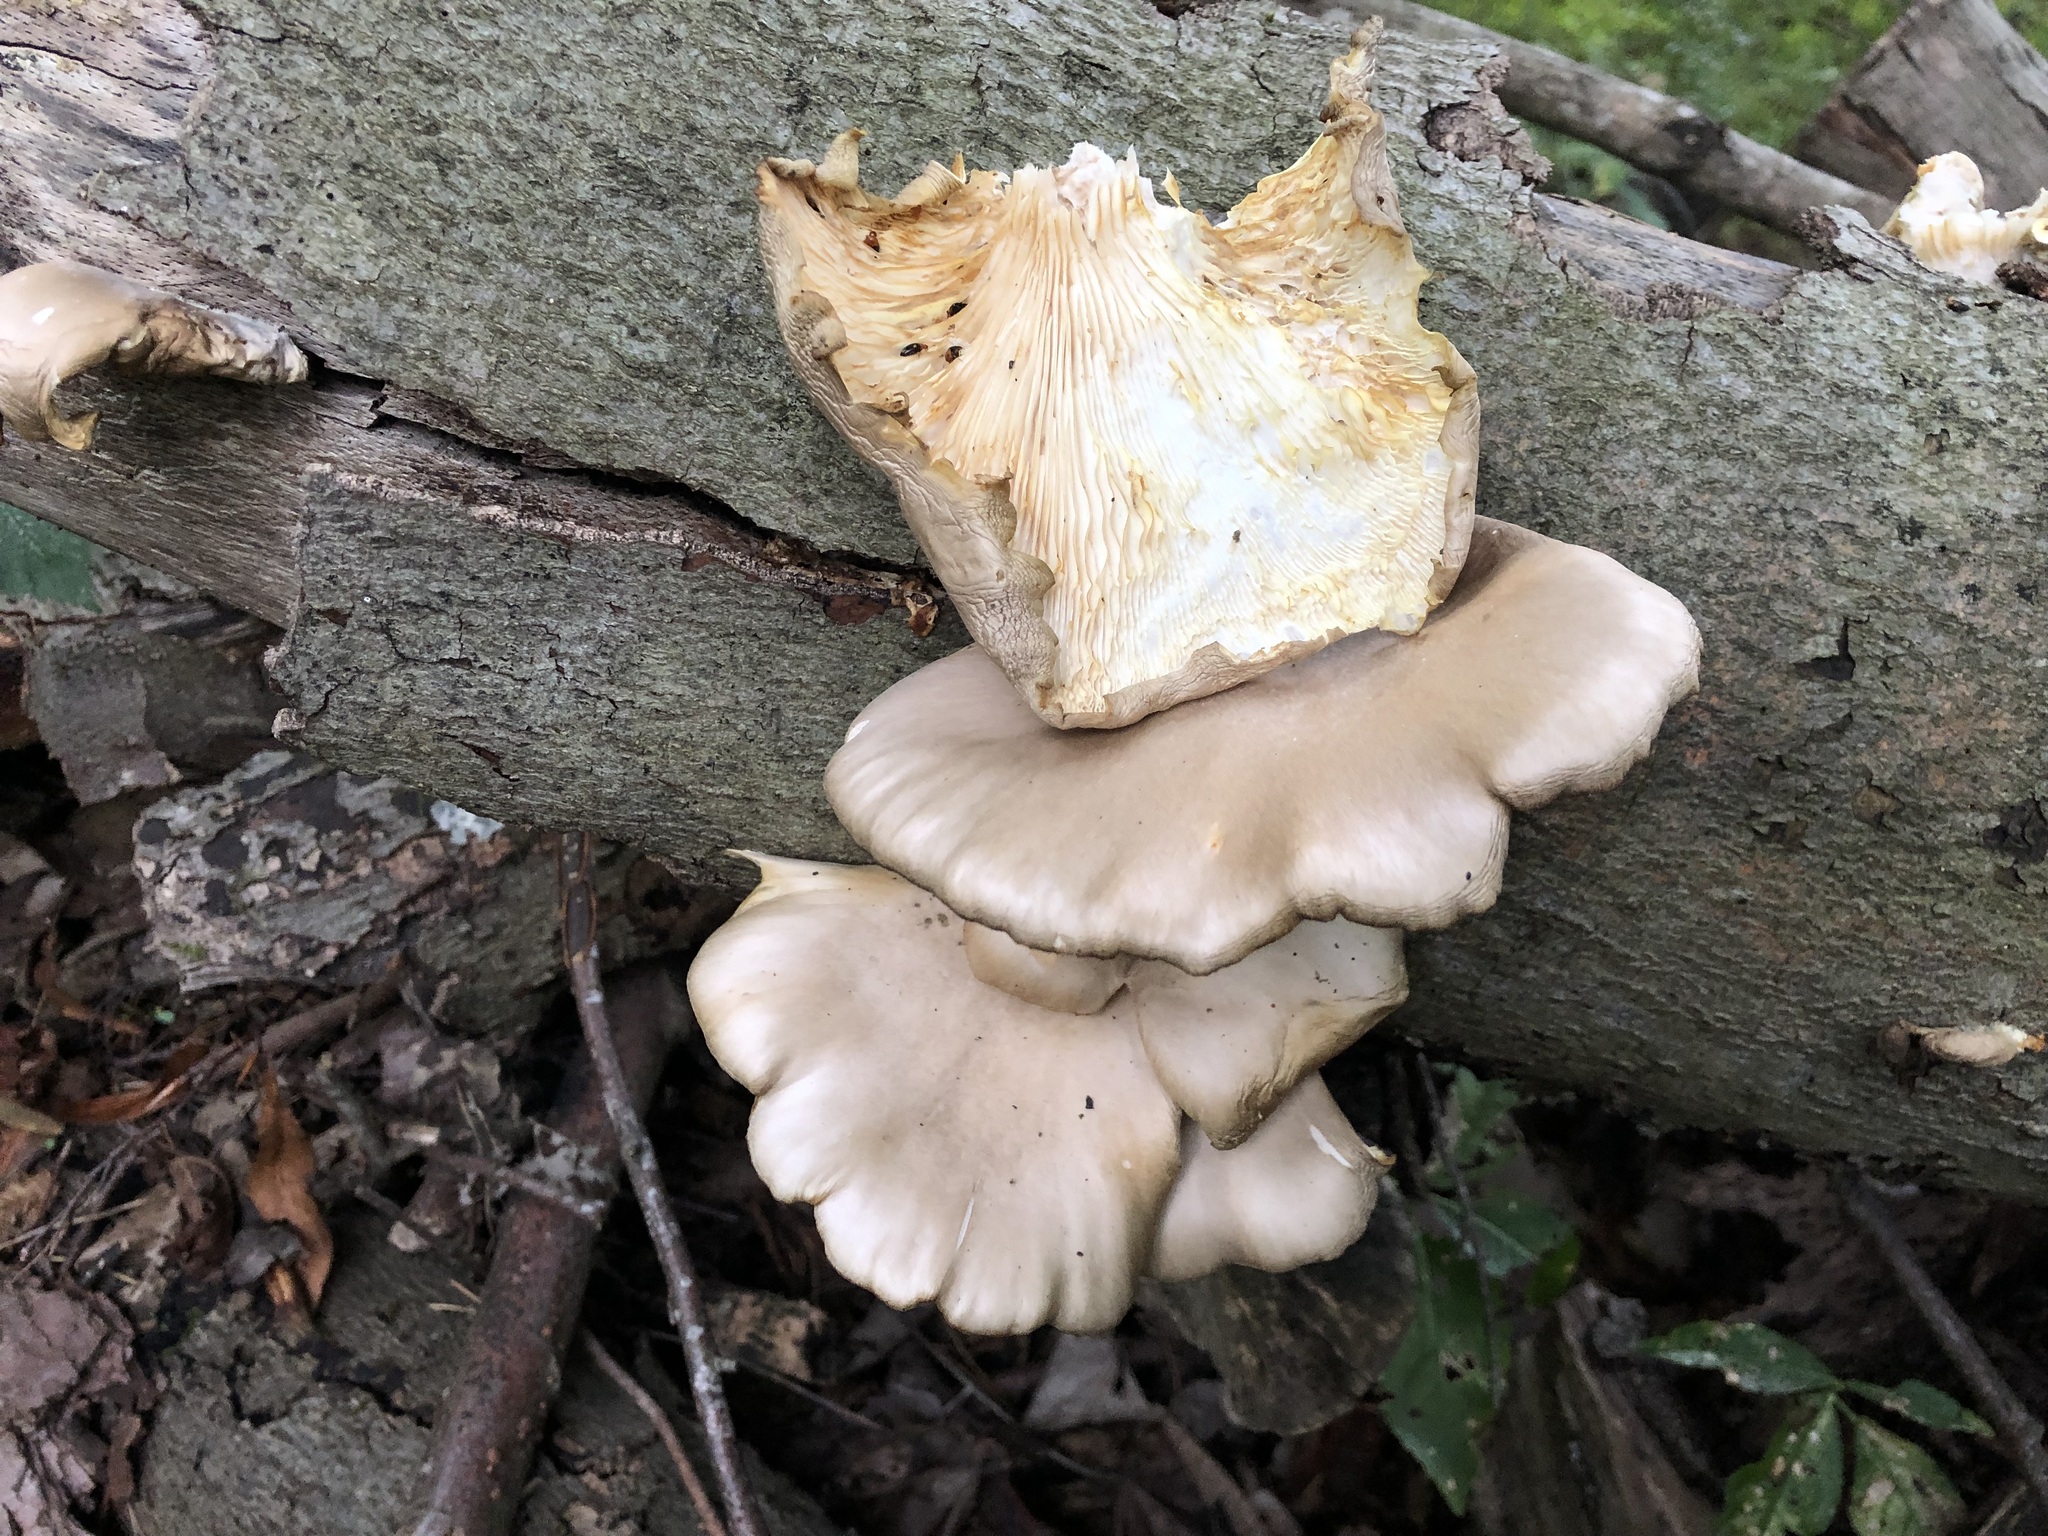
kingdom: Fungi
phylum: Basidiomycota
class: Agaricomycetes
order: Agaricales
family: Pleurotaceae
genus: Pleurotus
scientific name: Pleurotus ostreatus
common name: Oyster mushroom
